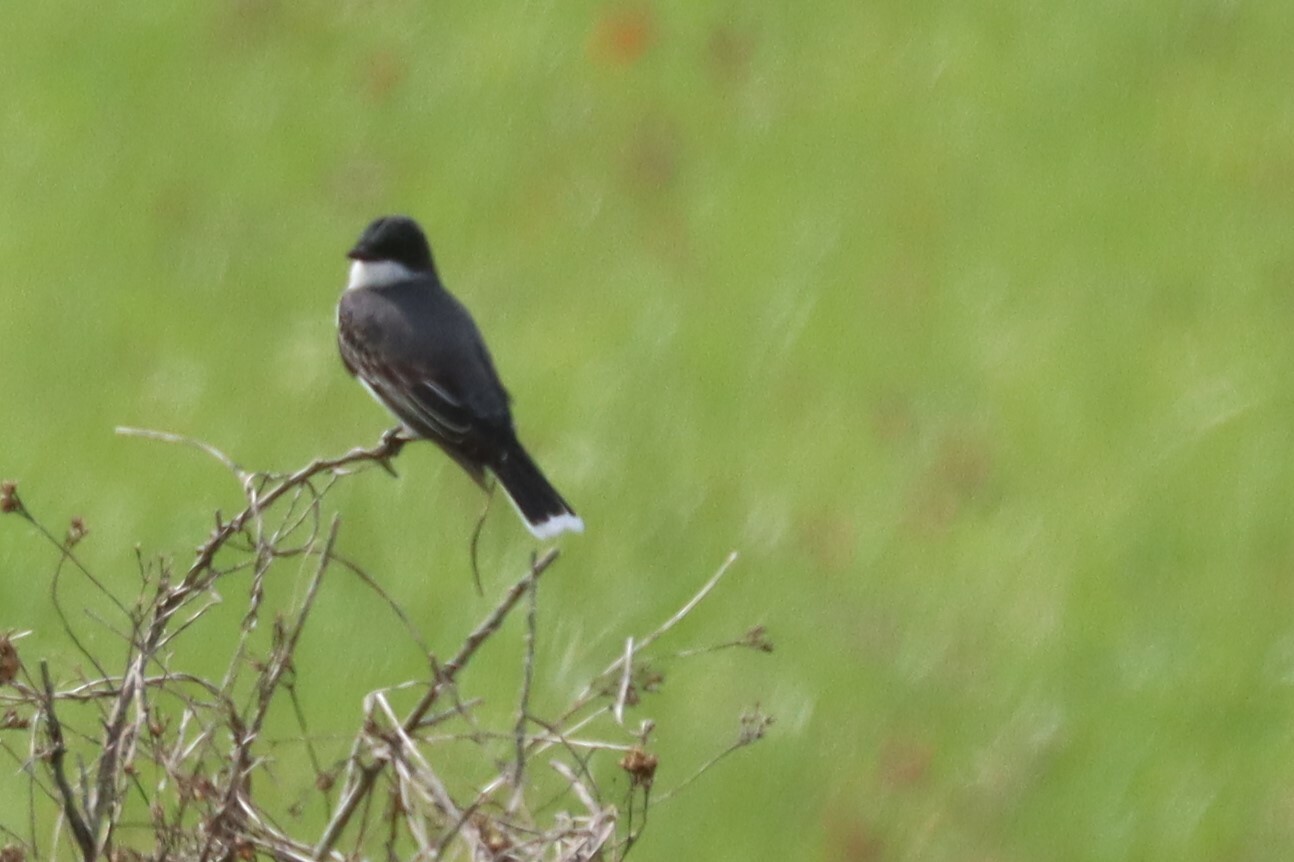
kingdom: Animalia
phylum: Chordata
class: Aves
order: Passeriformes
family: Tyrannidae
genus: Tyrannus
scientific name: Tyrannus tyrannus
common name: Eastern kingbird
